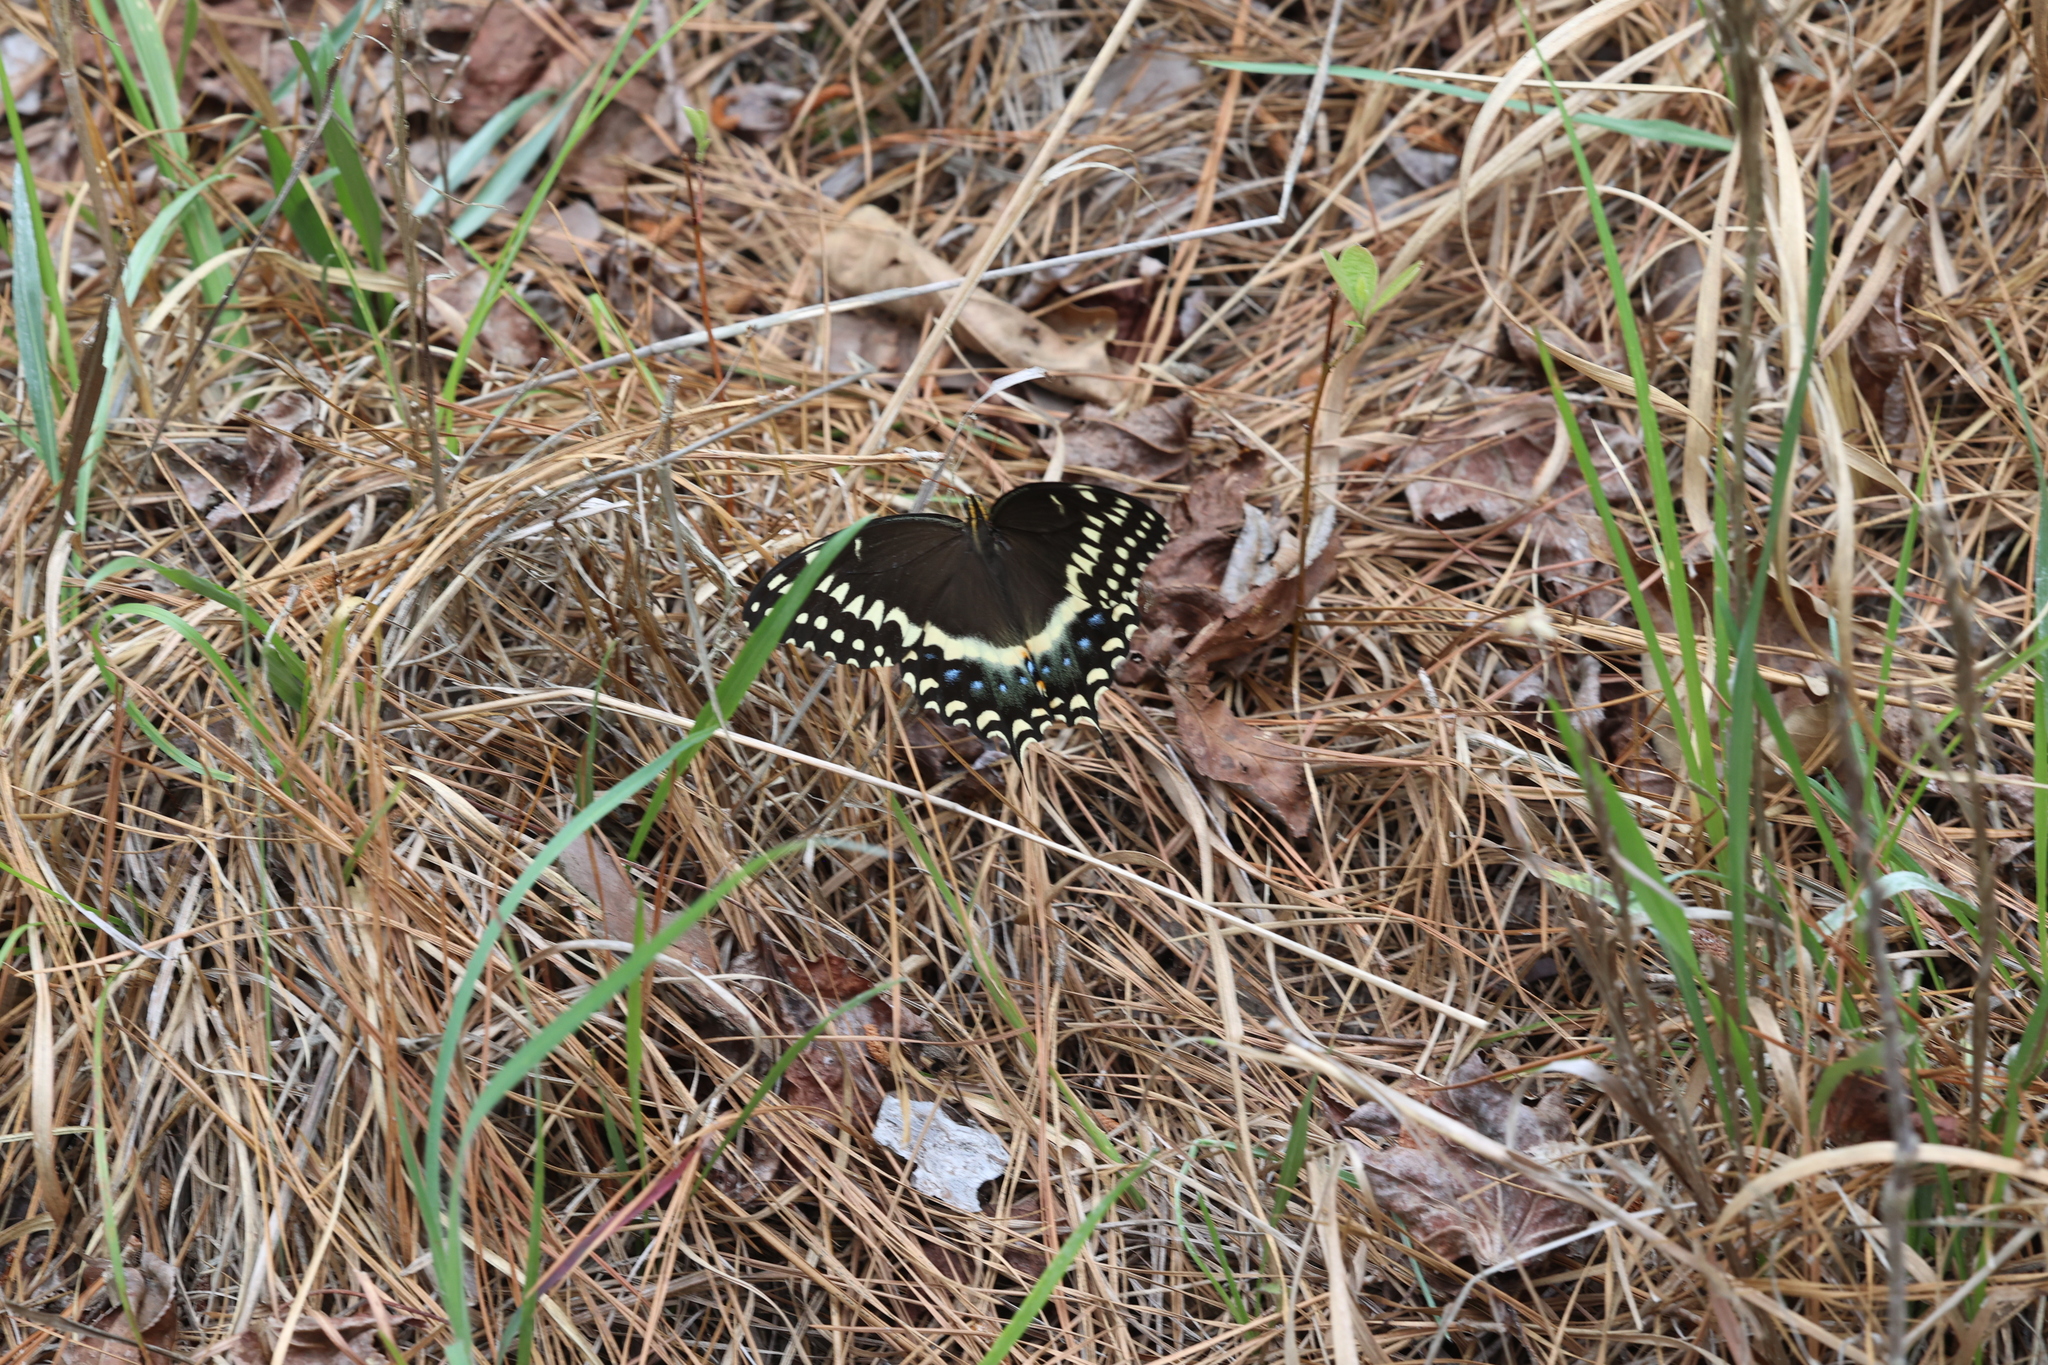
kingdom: Animalia
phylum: Arthropoda
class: Insecta
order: Lepidoptera
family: Papilionidae
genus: Papilio
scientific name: Papilio palamedes
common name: Palamedes swallowtail
